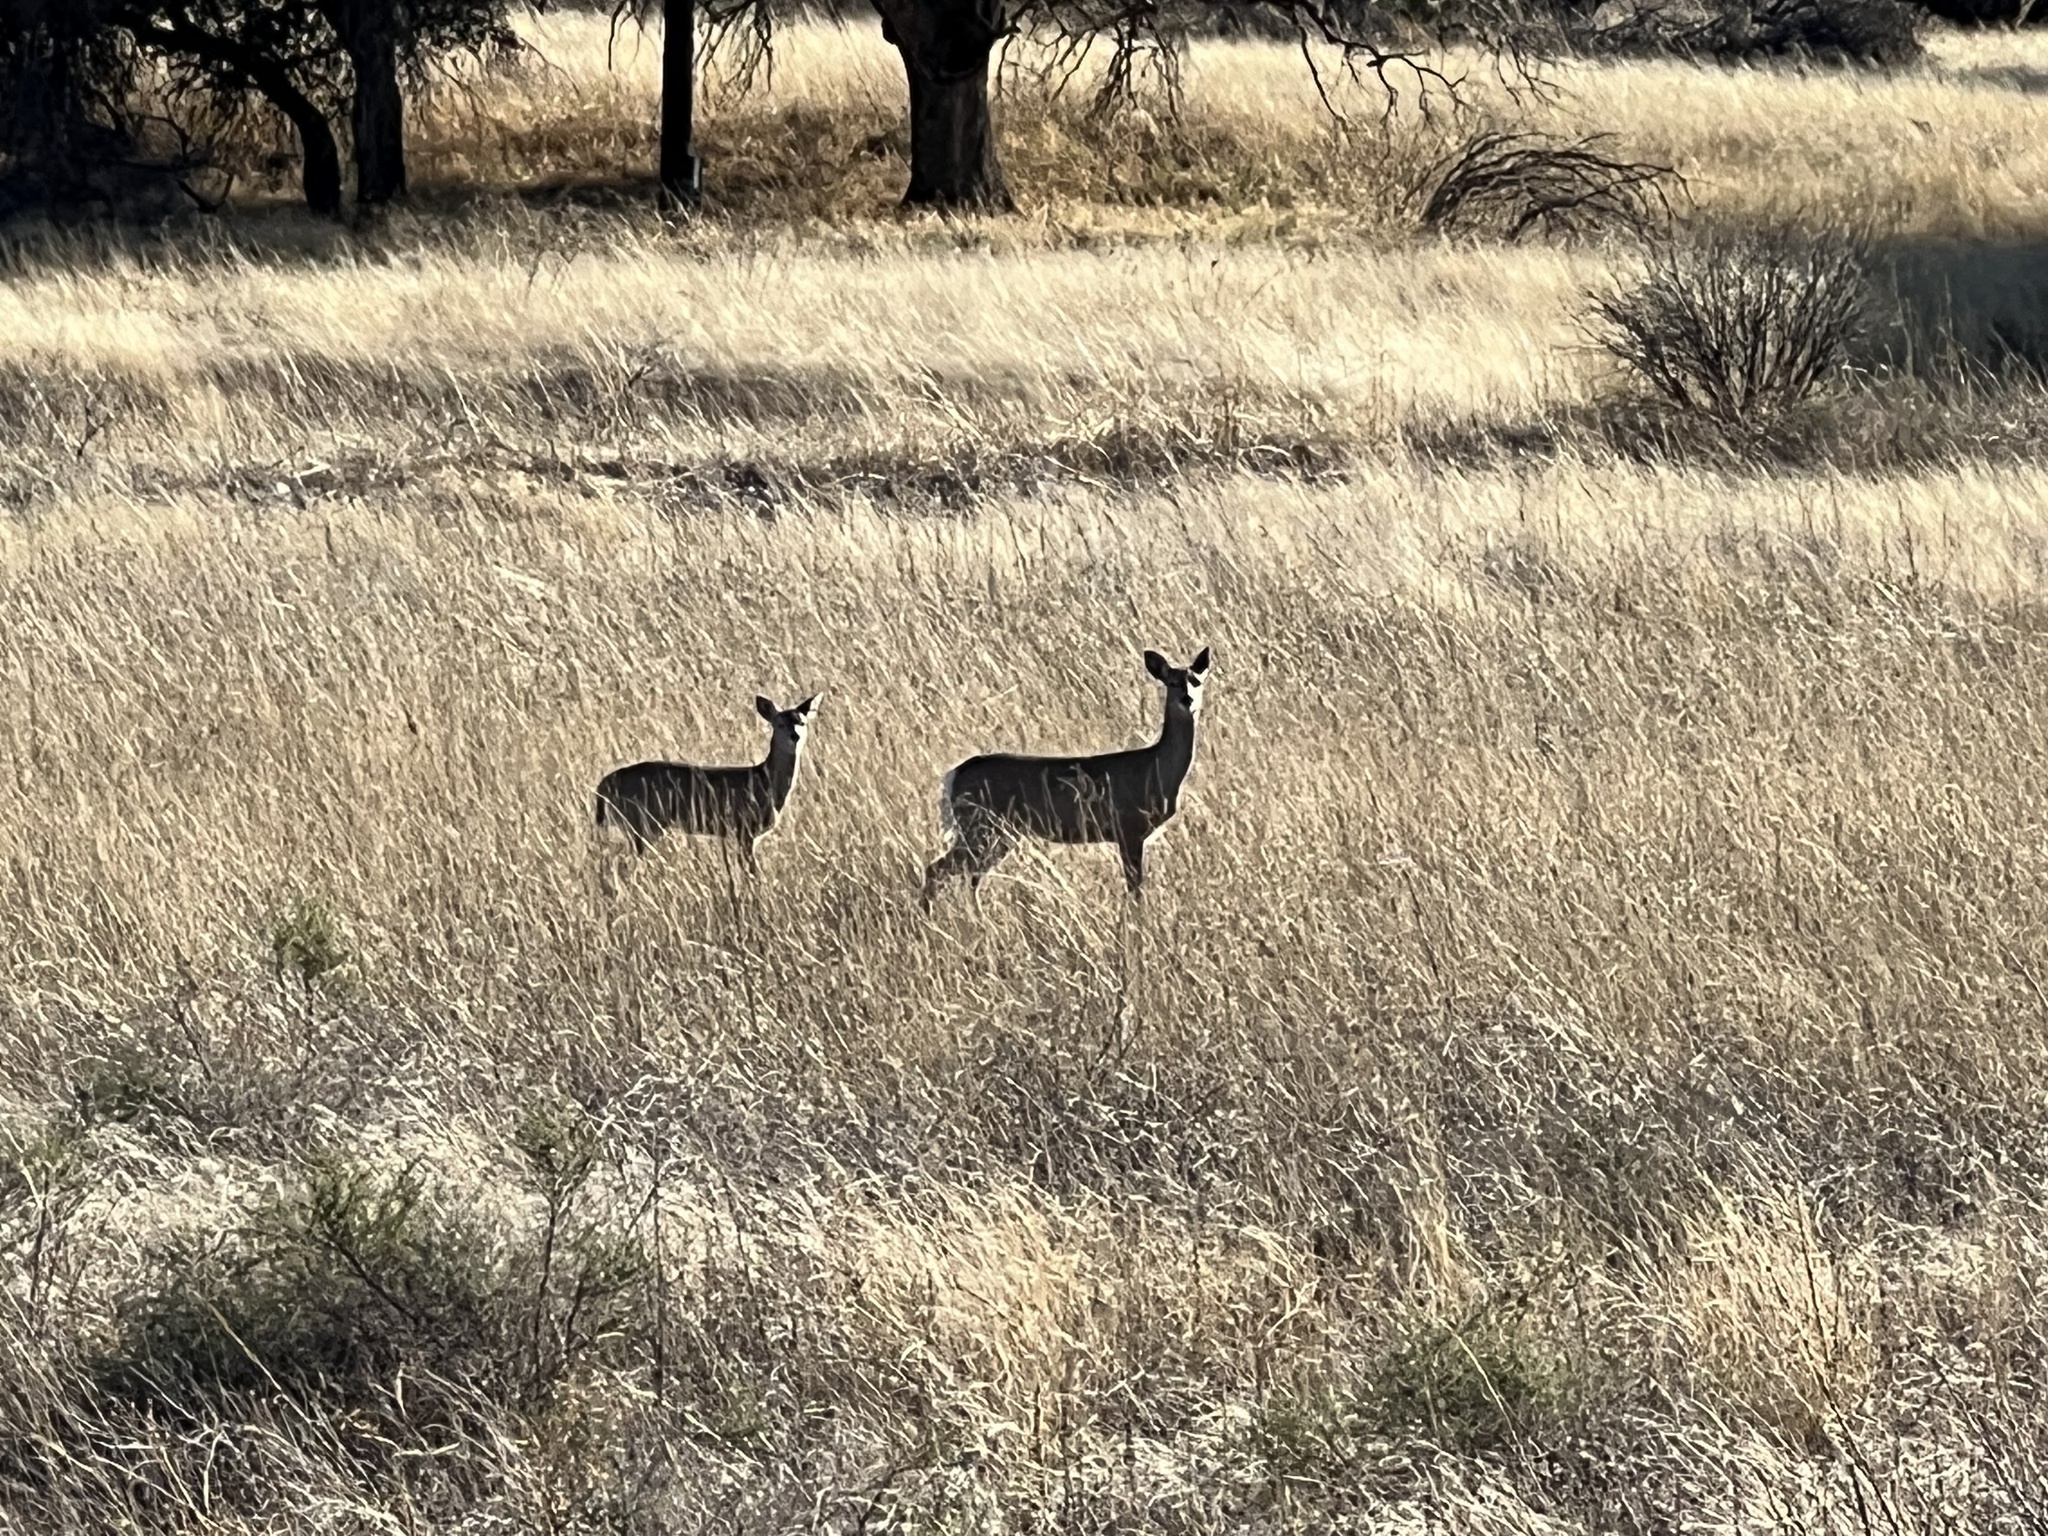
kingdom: Animalia
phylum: Chordata
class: Mammalia
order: Artiodactyla
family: Cervidae
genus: Odocoileus
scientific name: Odocoileus virginianus
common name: White-tailed deer
